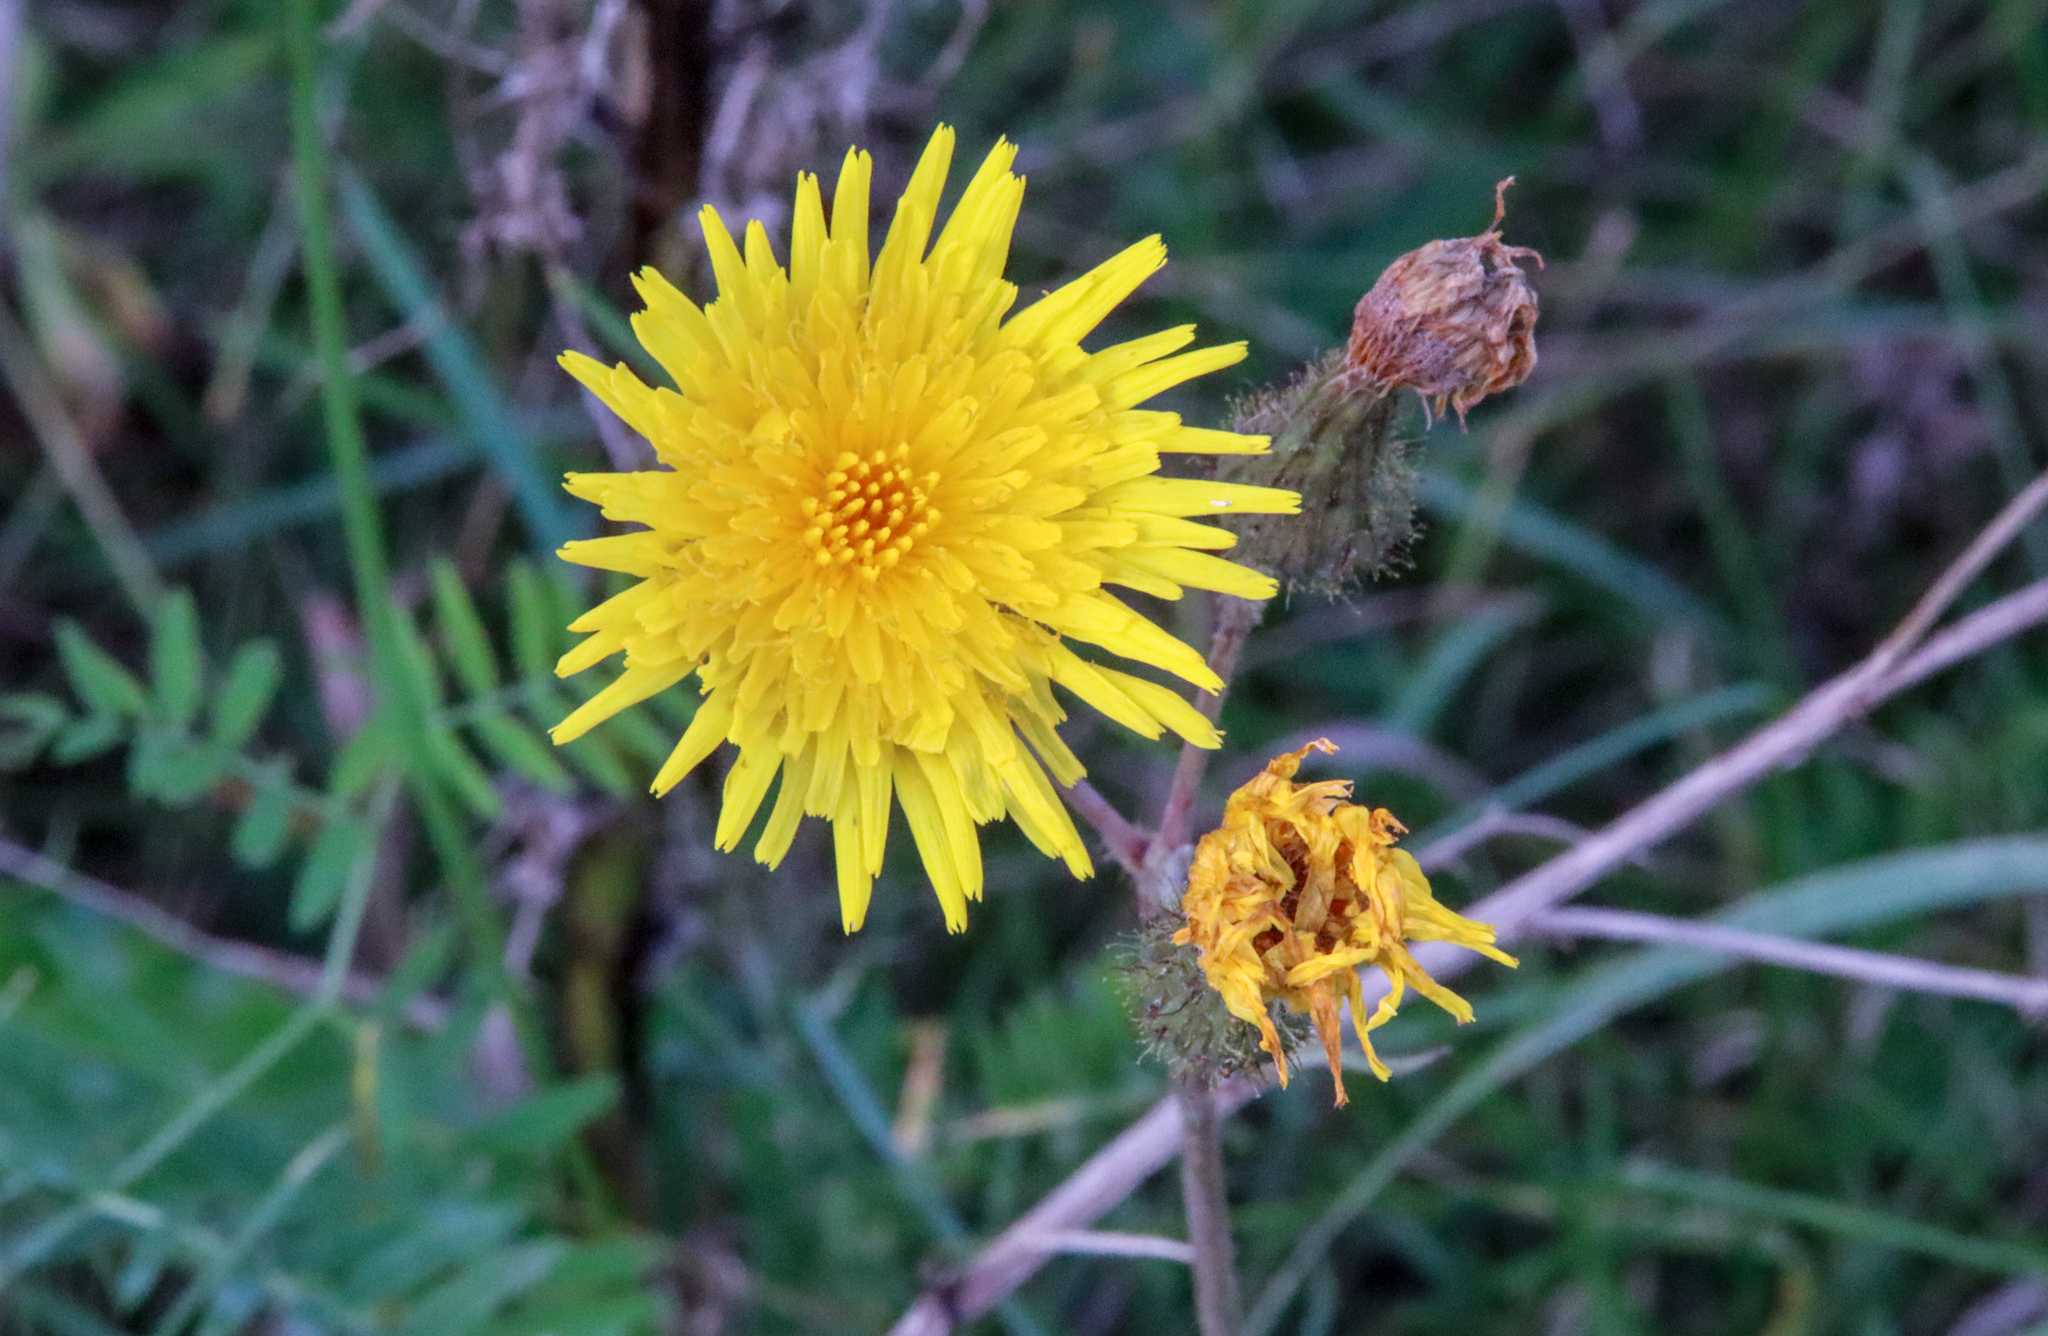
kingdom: Plantae
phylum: Tracheophyta
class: Magnoliopsida
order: Asterales
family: Asteraceae
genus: Sonchus
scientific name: Sonchus arvensis
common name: Perennial sow-thistle
